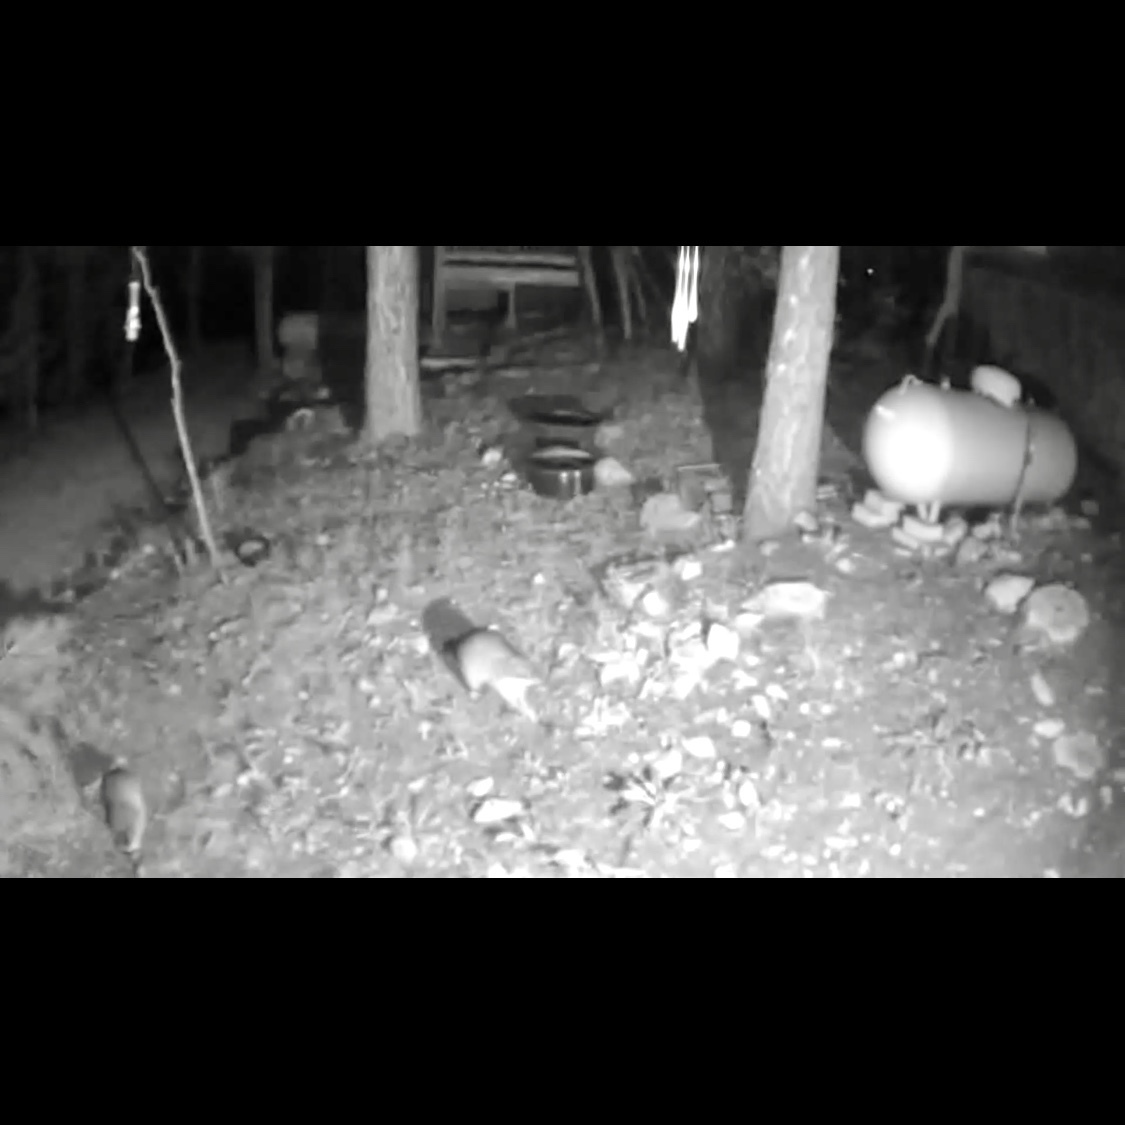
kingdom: Animalia
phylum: Chordata
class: Mammalia
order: Carnivora
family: Procyonidae
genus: Procyon
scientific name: Procyon lotor
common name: Raccoon
